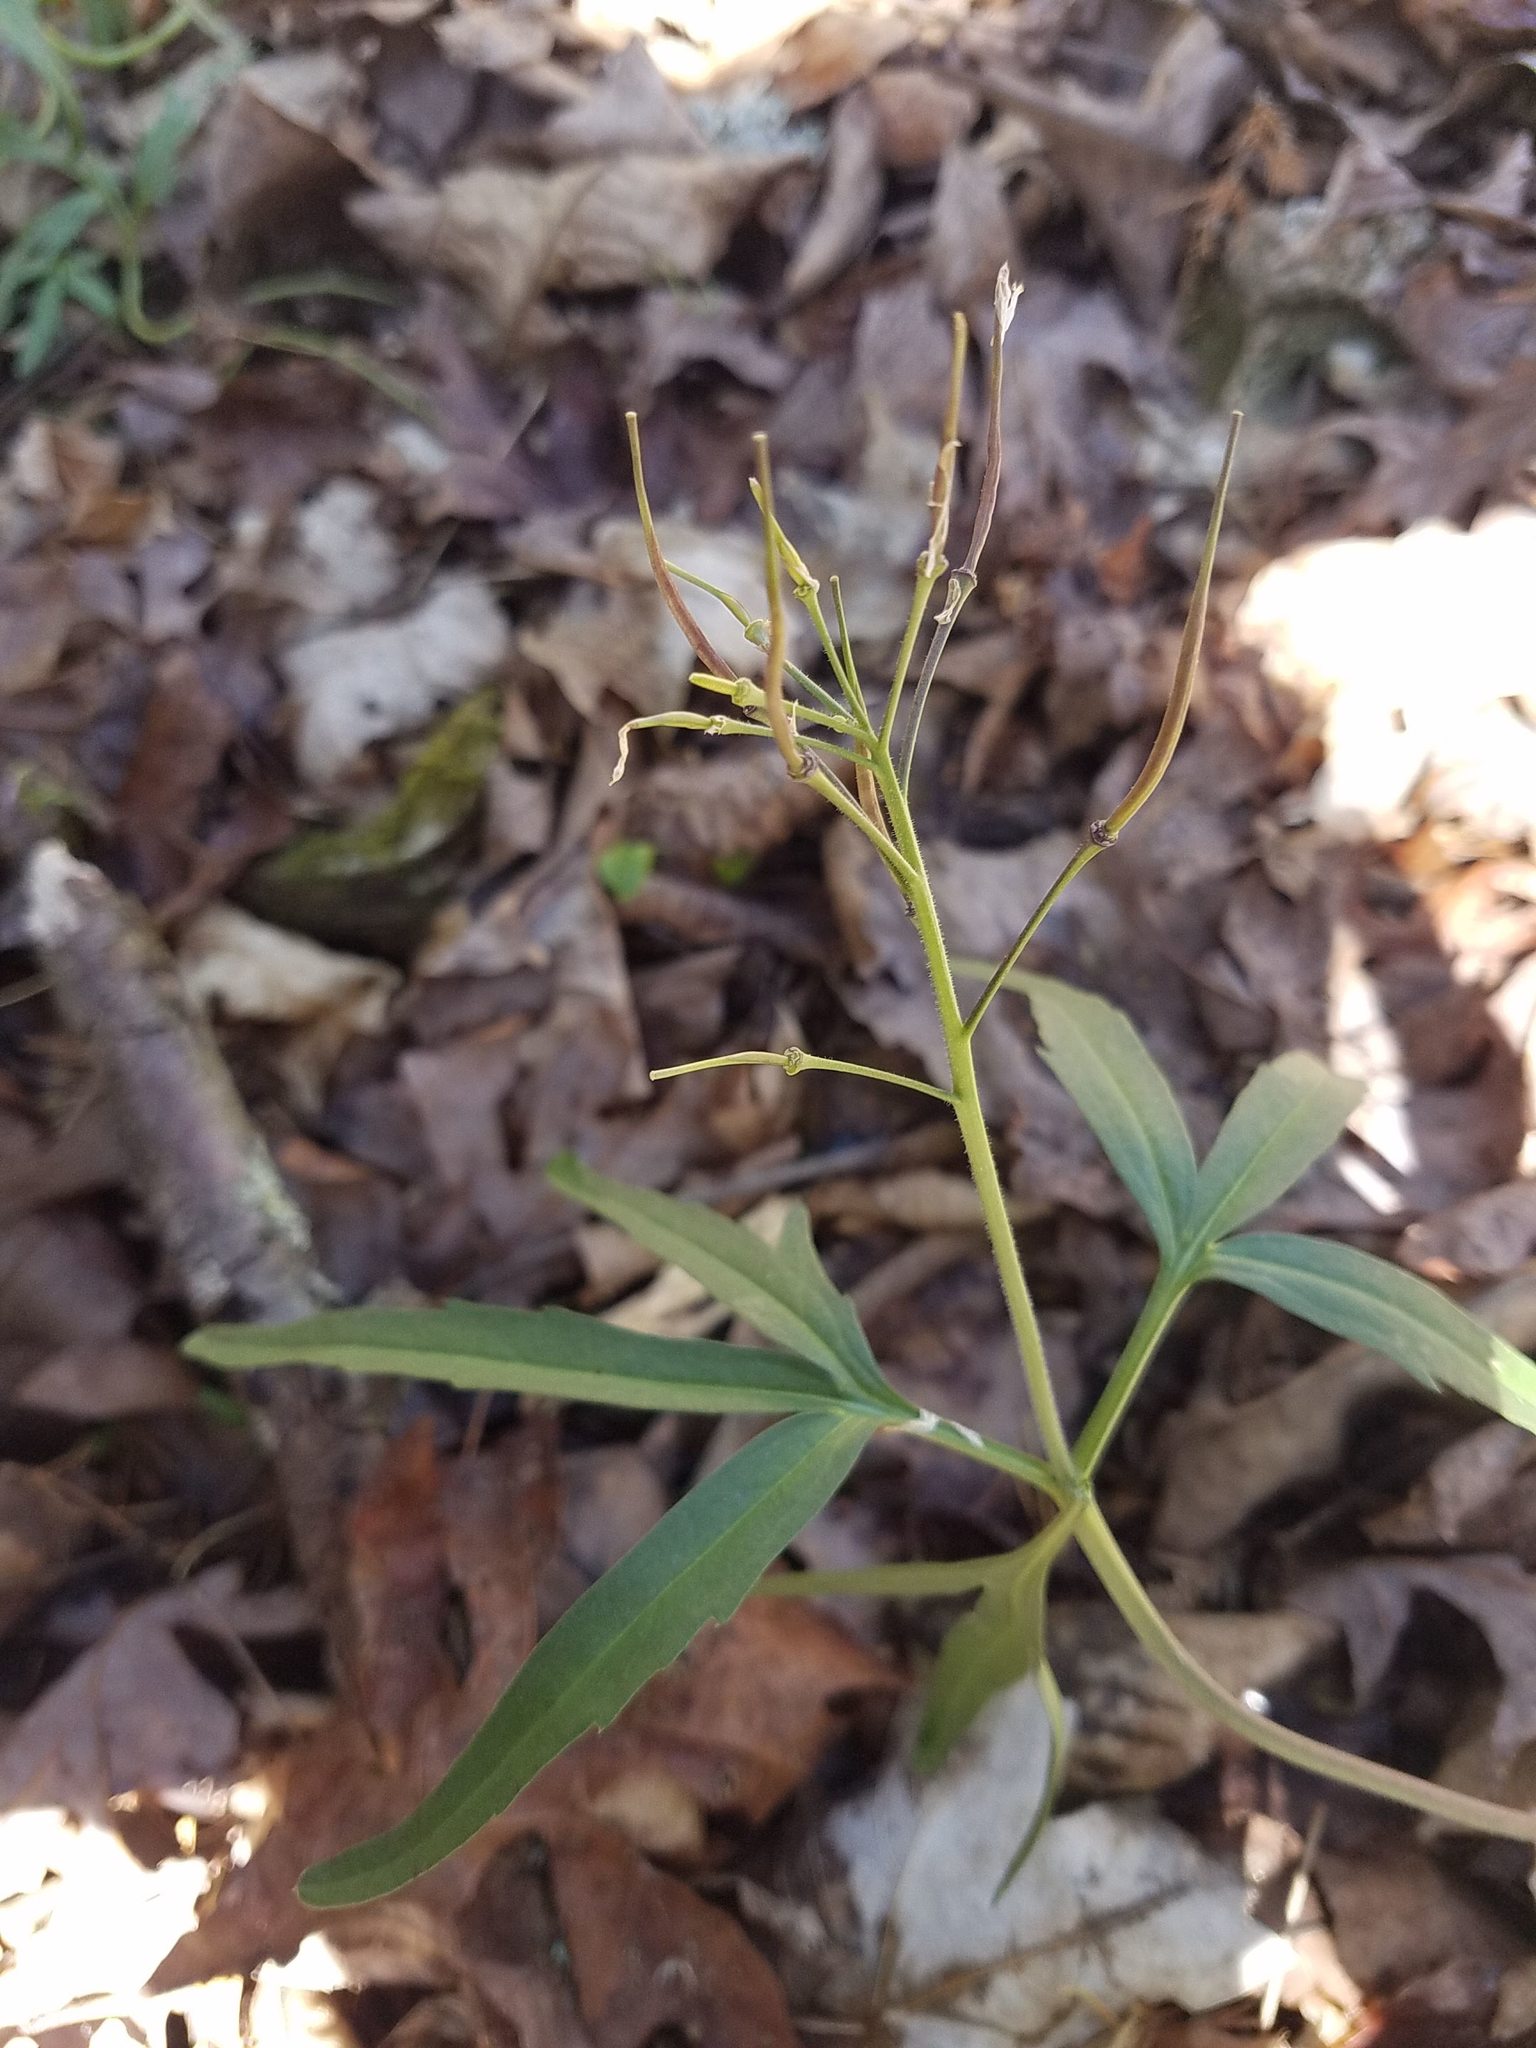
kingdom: Plantae
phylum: Tracheophyta
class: Magnoliopsida
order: Brassicales
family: Brassicaceae
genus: Cardamine
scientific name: Cardamine concatenata
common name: Cut-leaf toothcup
